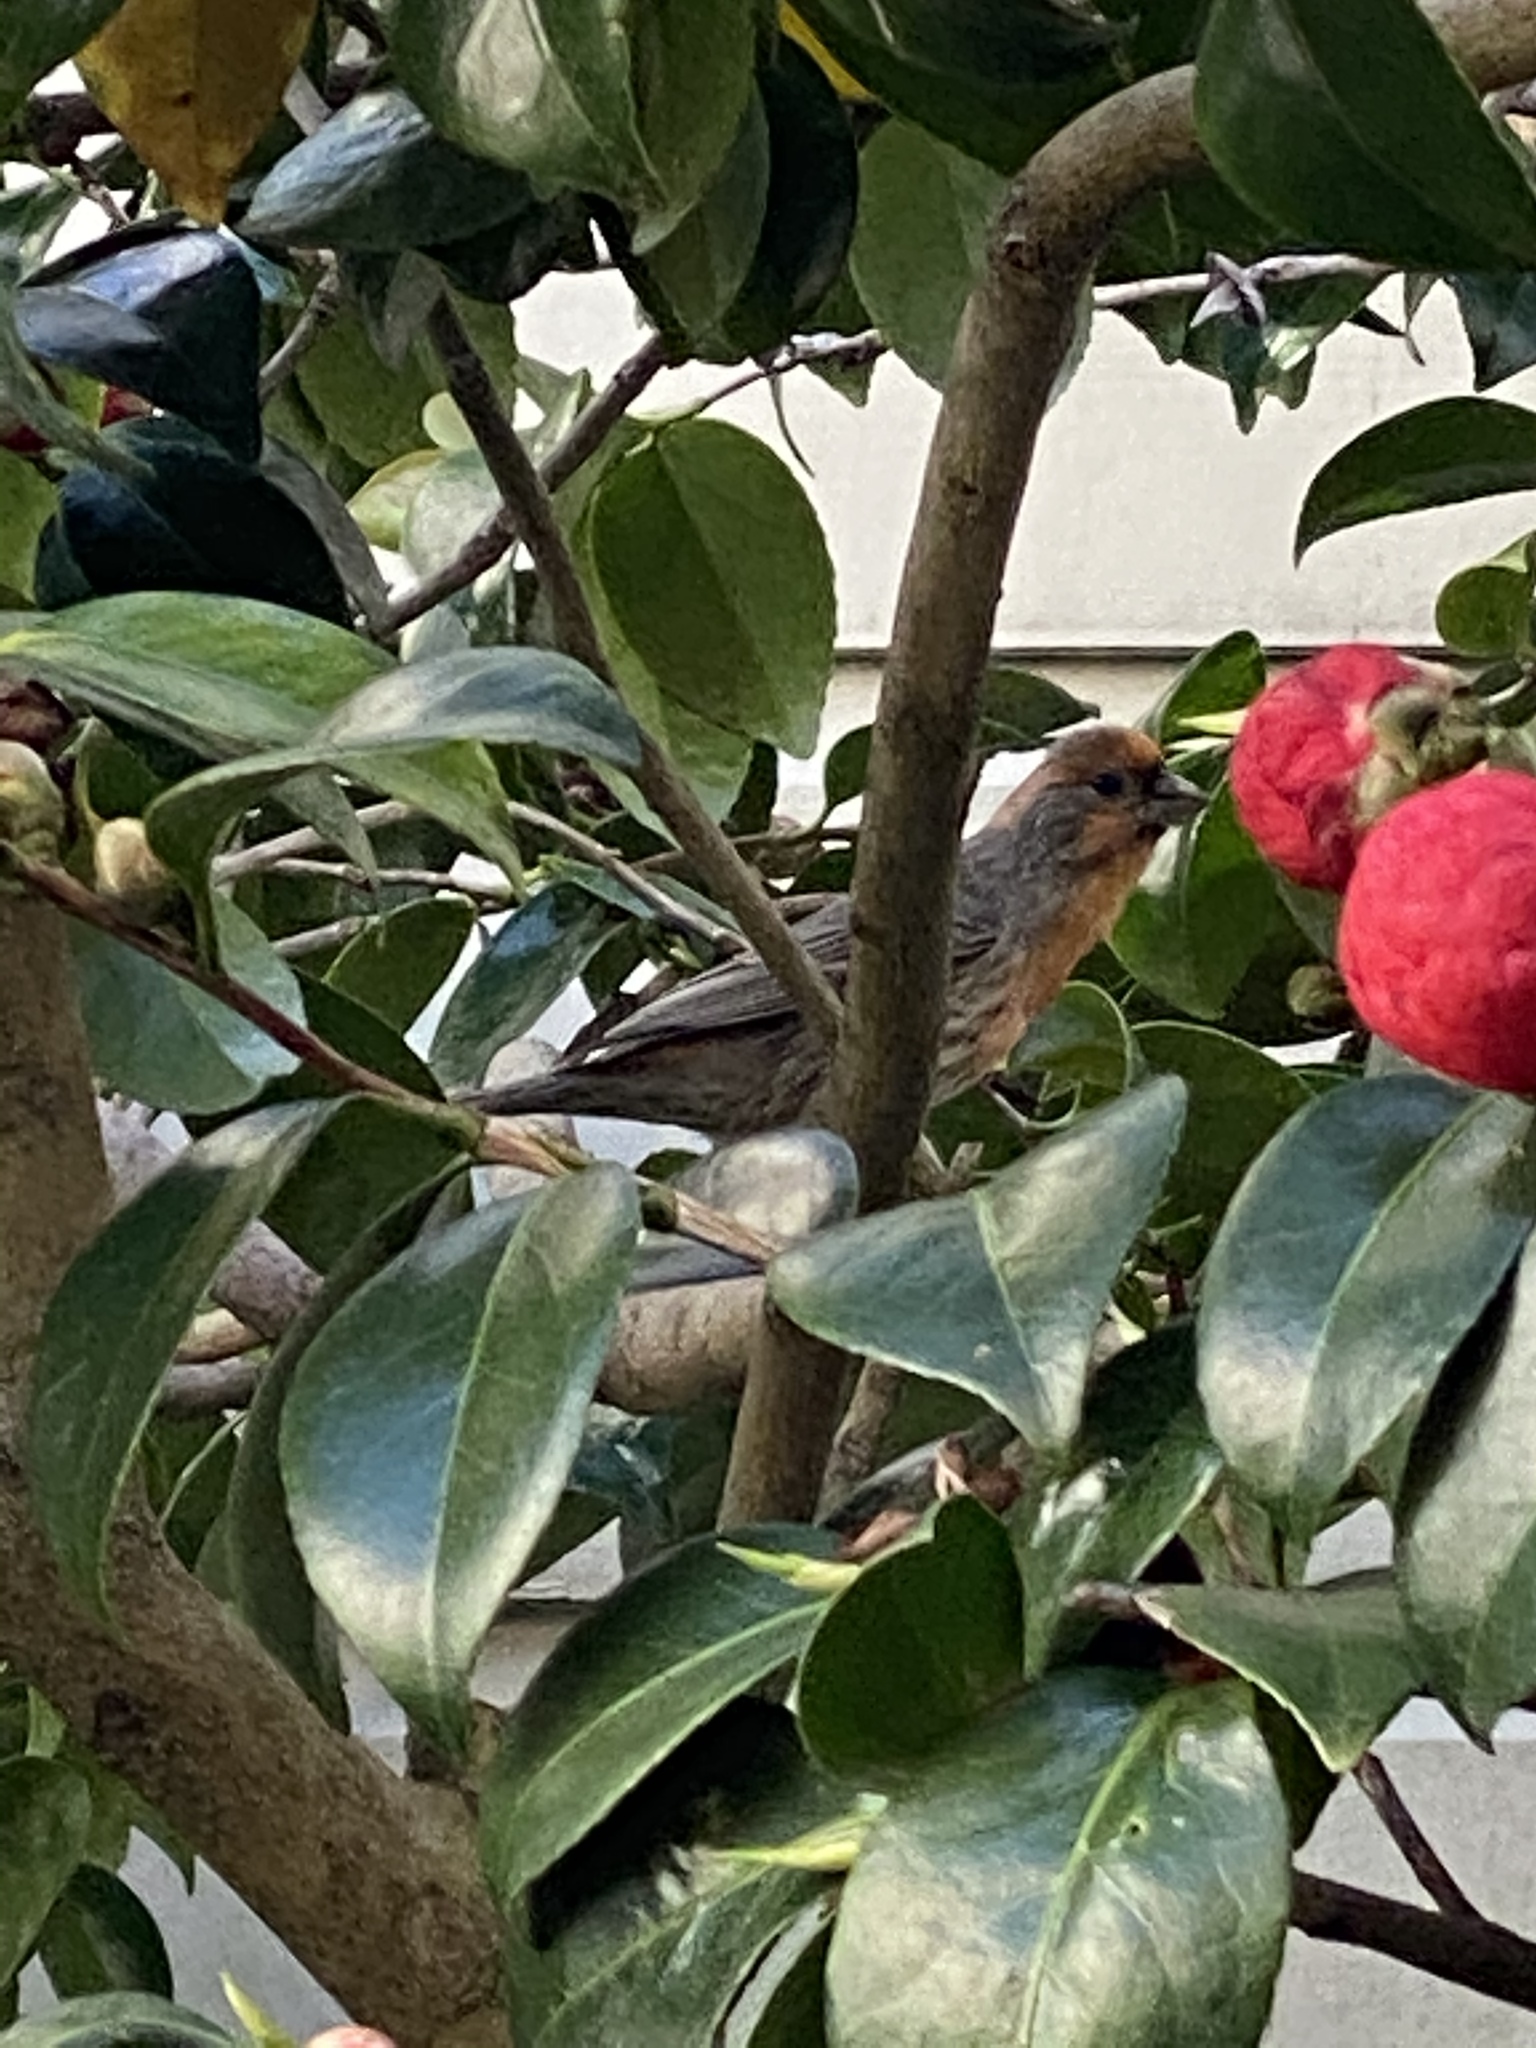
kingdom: Animalia
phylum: Chordata
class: Aves
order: Passeriformes
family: Fringillidae
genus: Haemorhous
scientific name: Haemorhous mexicanus
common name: House finch
